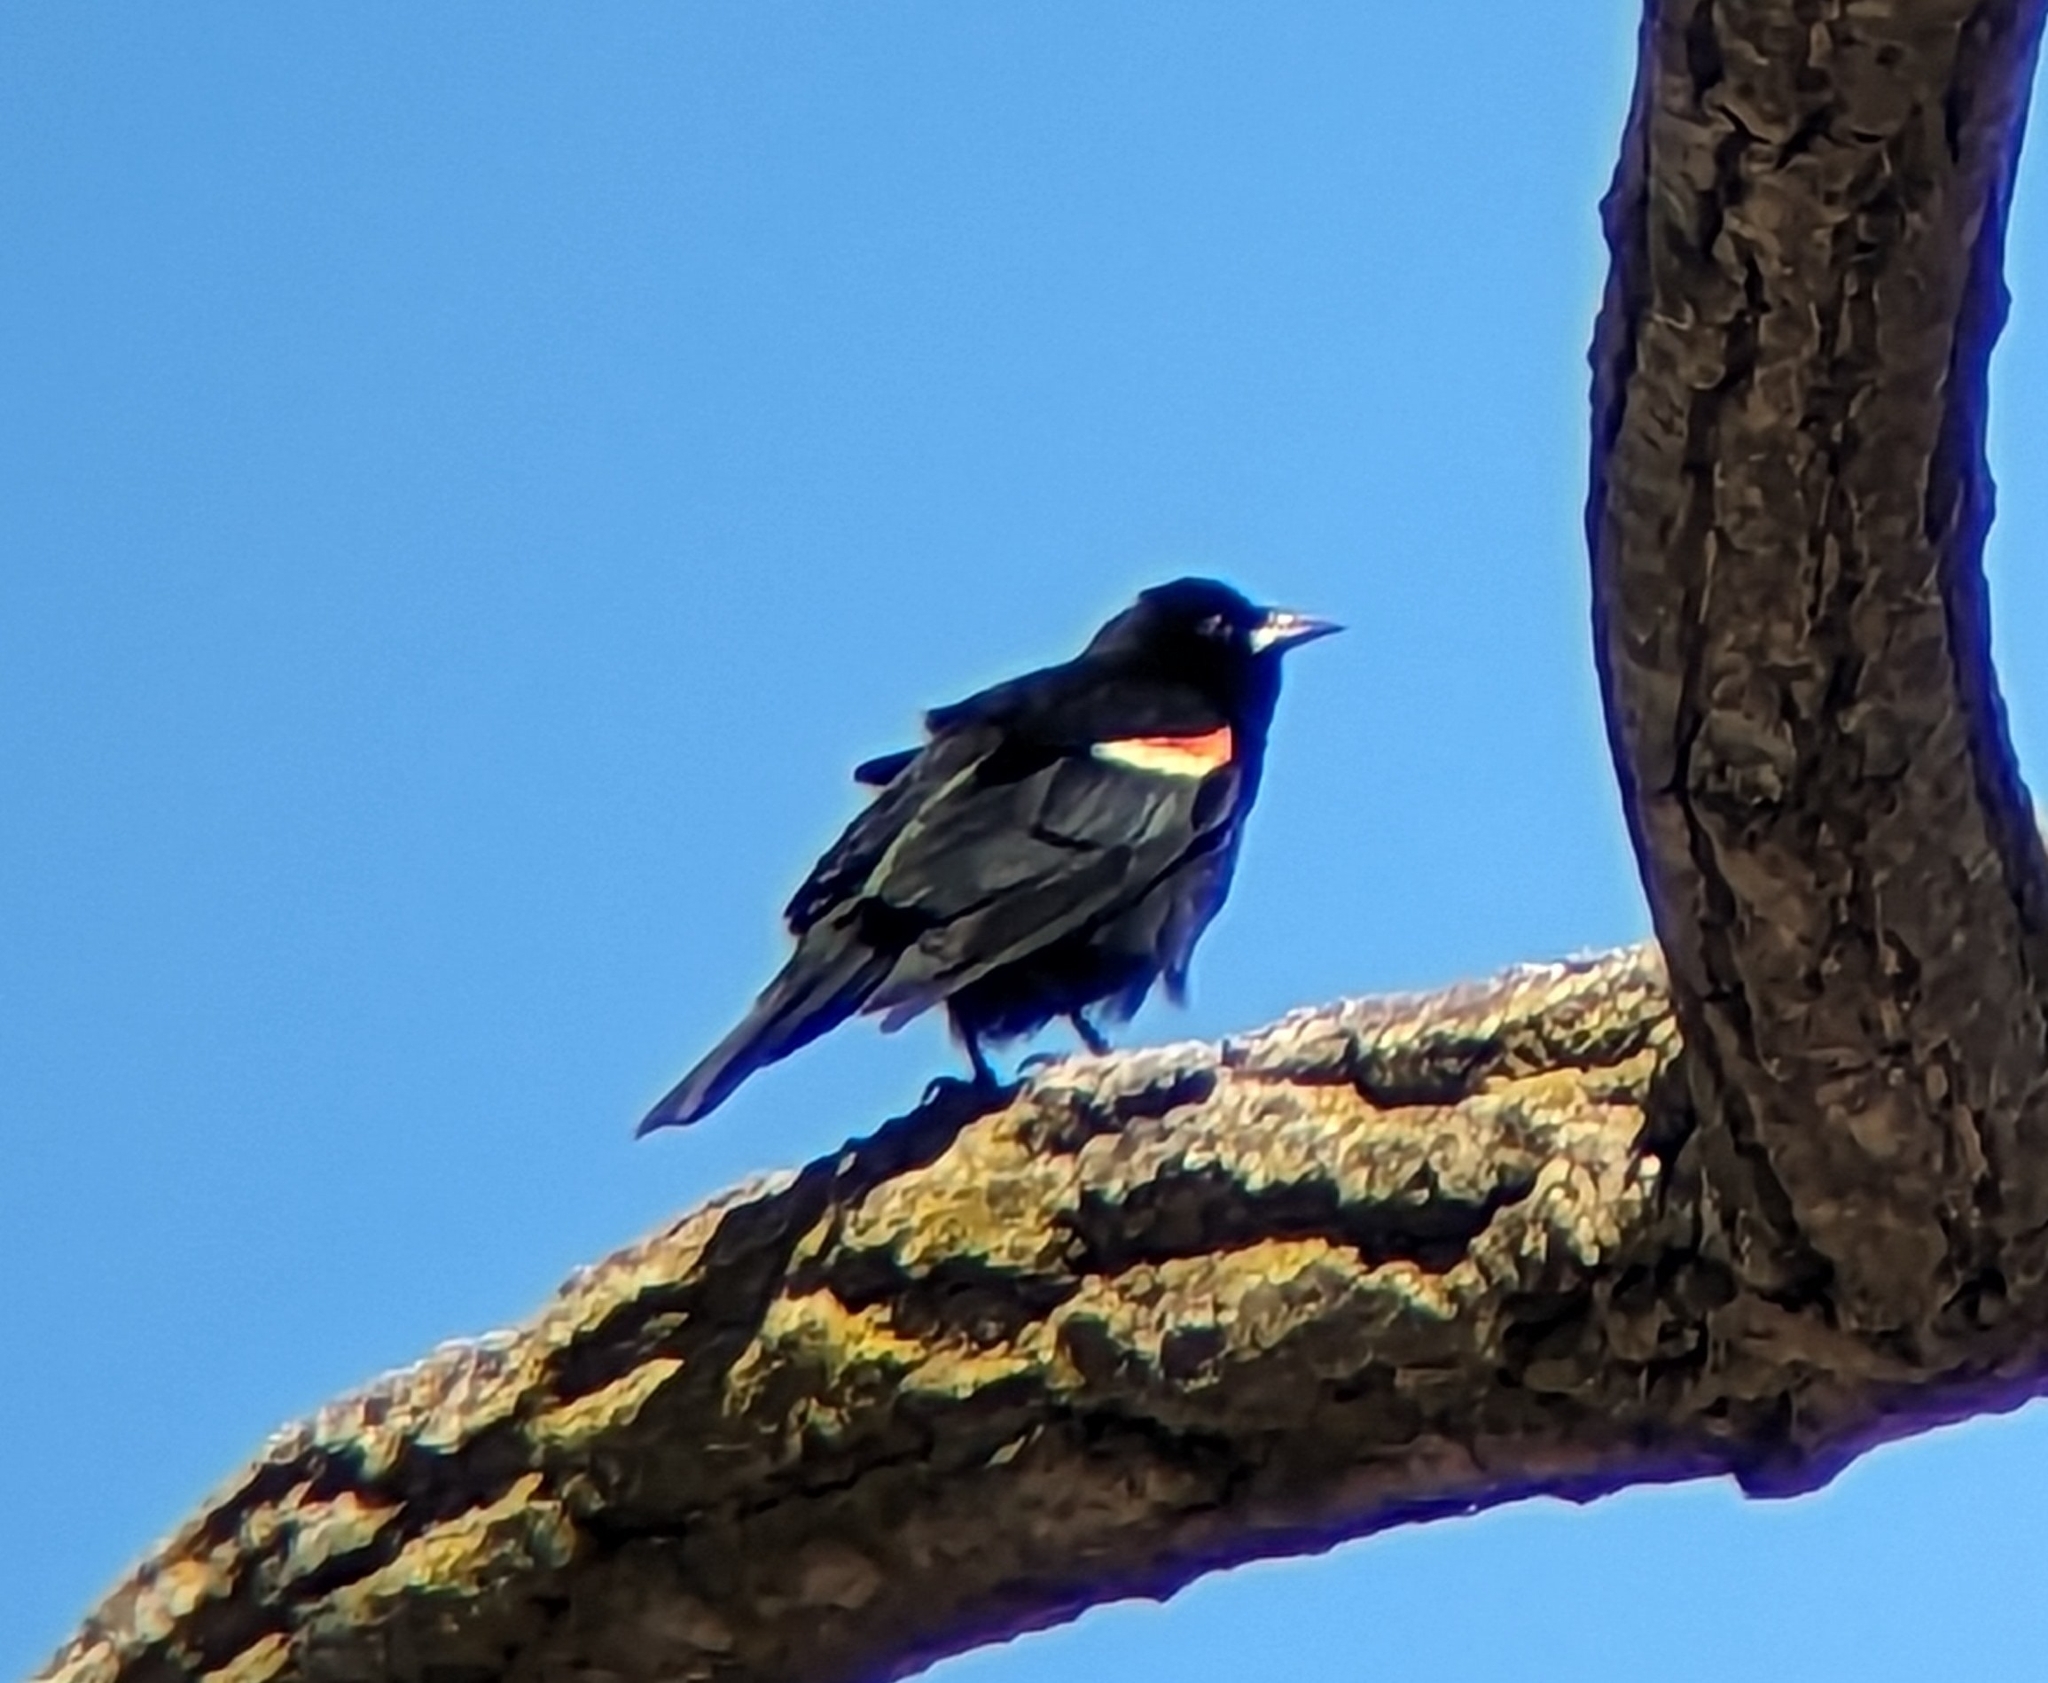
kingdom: Animalia
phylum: Chordata
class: Aves
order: Passeriformes
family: Icteridae
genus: Agelaius
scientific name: Agelaius phoeniceus
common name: Red-winged blackbird
